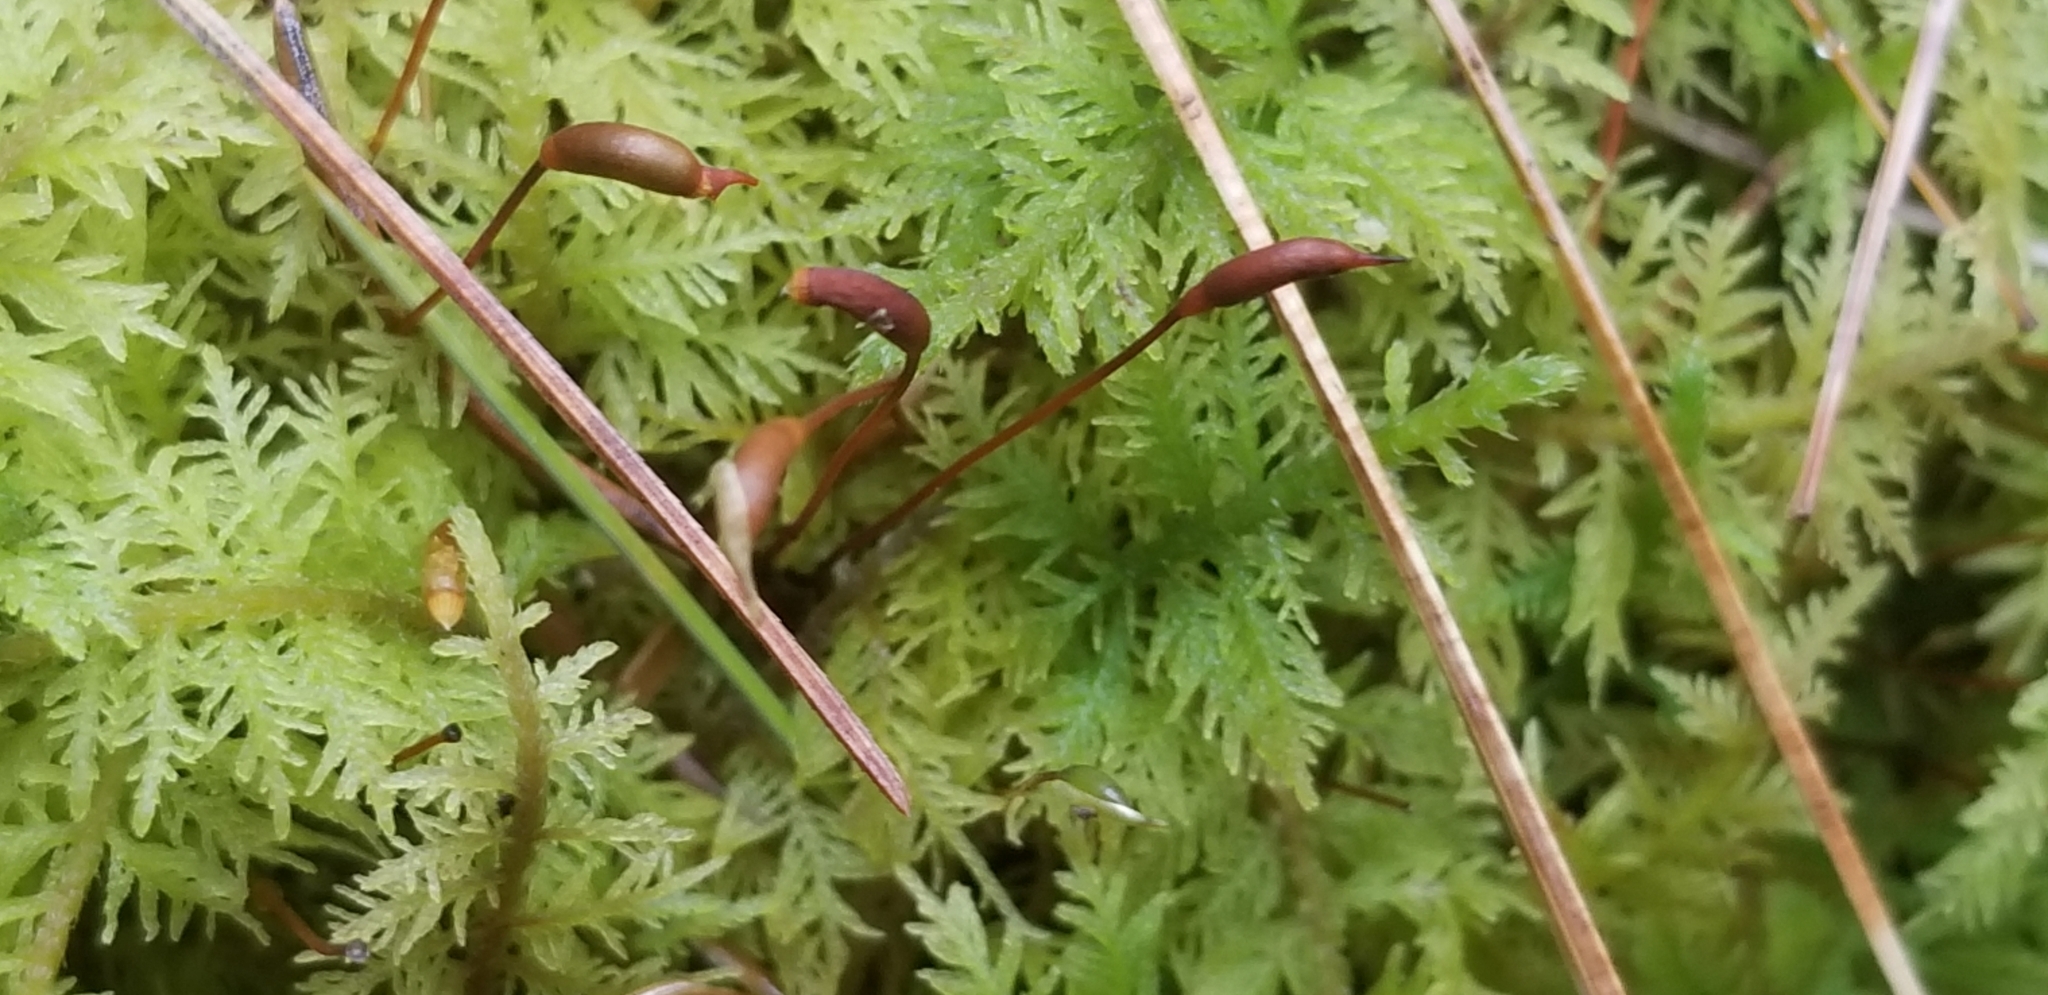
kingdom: Plantae
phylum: Bryophyta
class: Bryopsida
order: Hypnales
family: Thuidiaceae
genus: Thuidium
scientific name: Thuidium delicatulum
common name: Delicate fern moss
